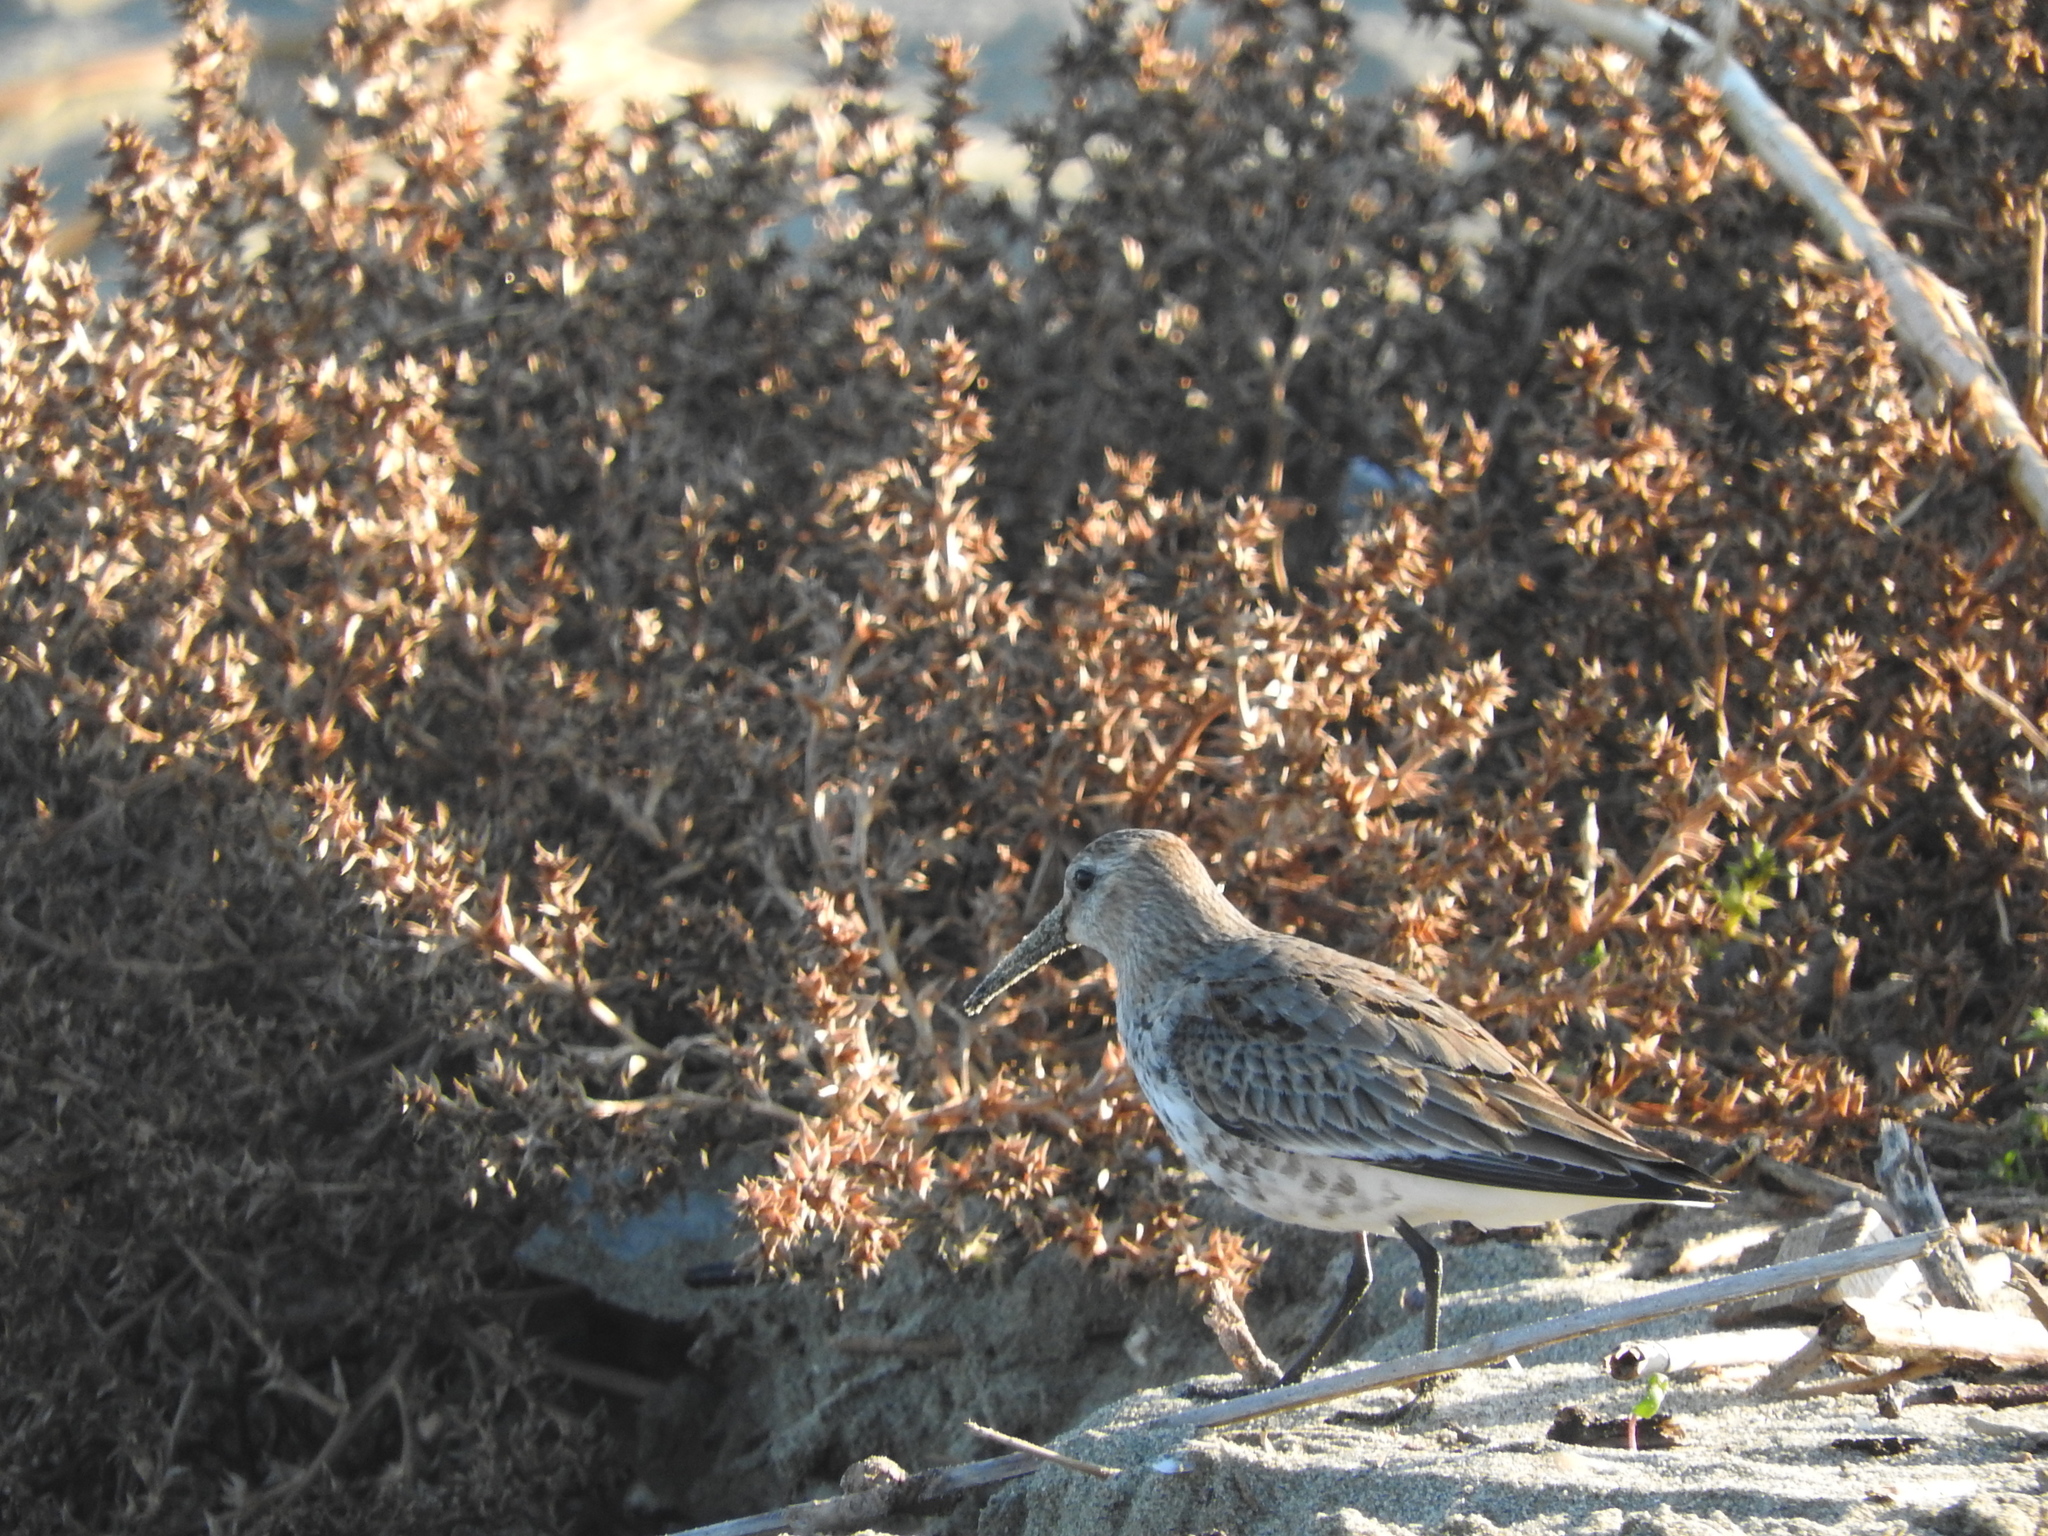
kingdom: Animalia
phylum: Chordata
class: Aves
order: Charadriiformes
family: Scolopacidae
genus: Calidris
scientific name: Calidris alpina
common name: Dunlin
